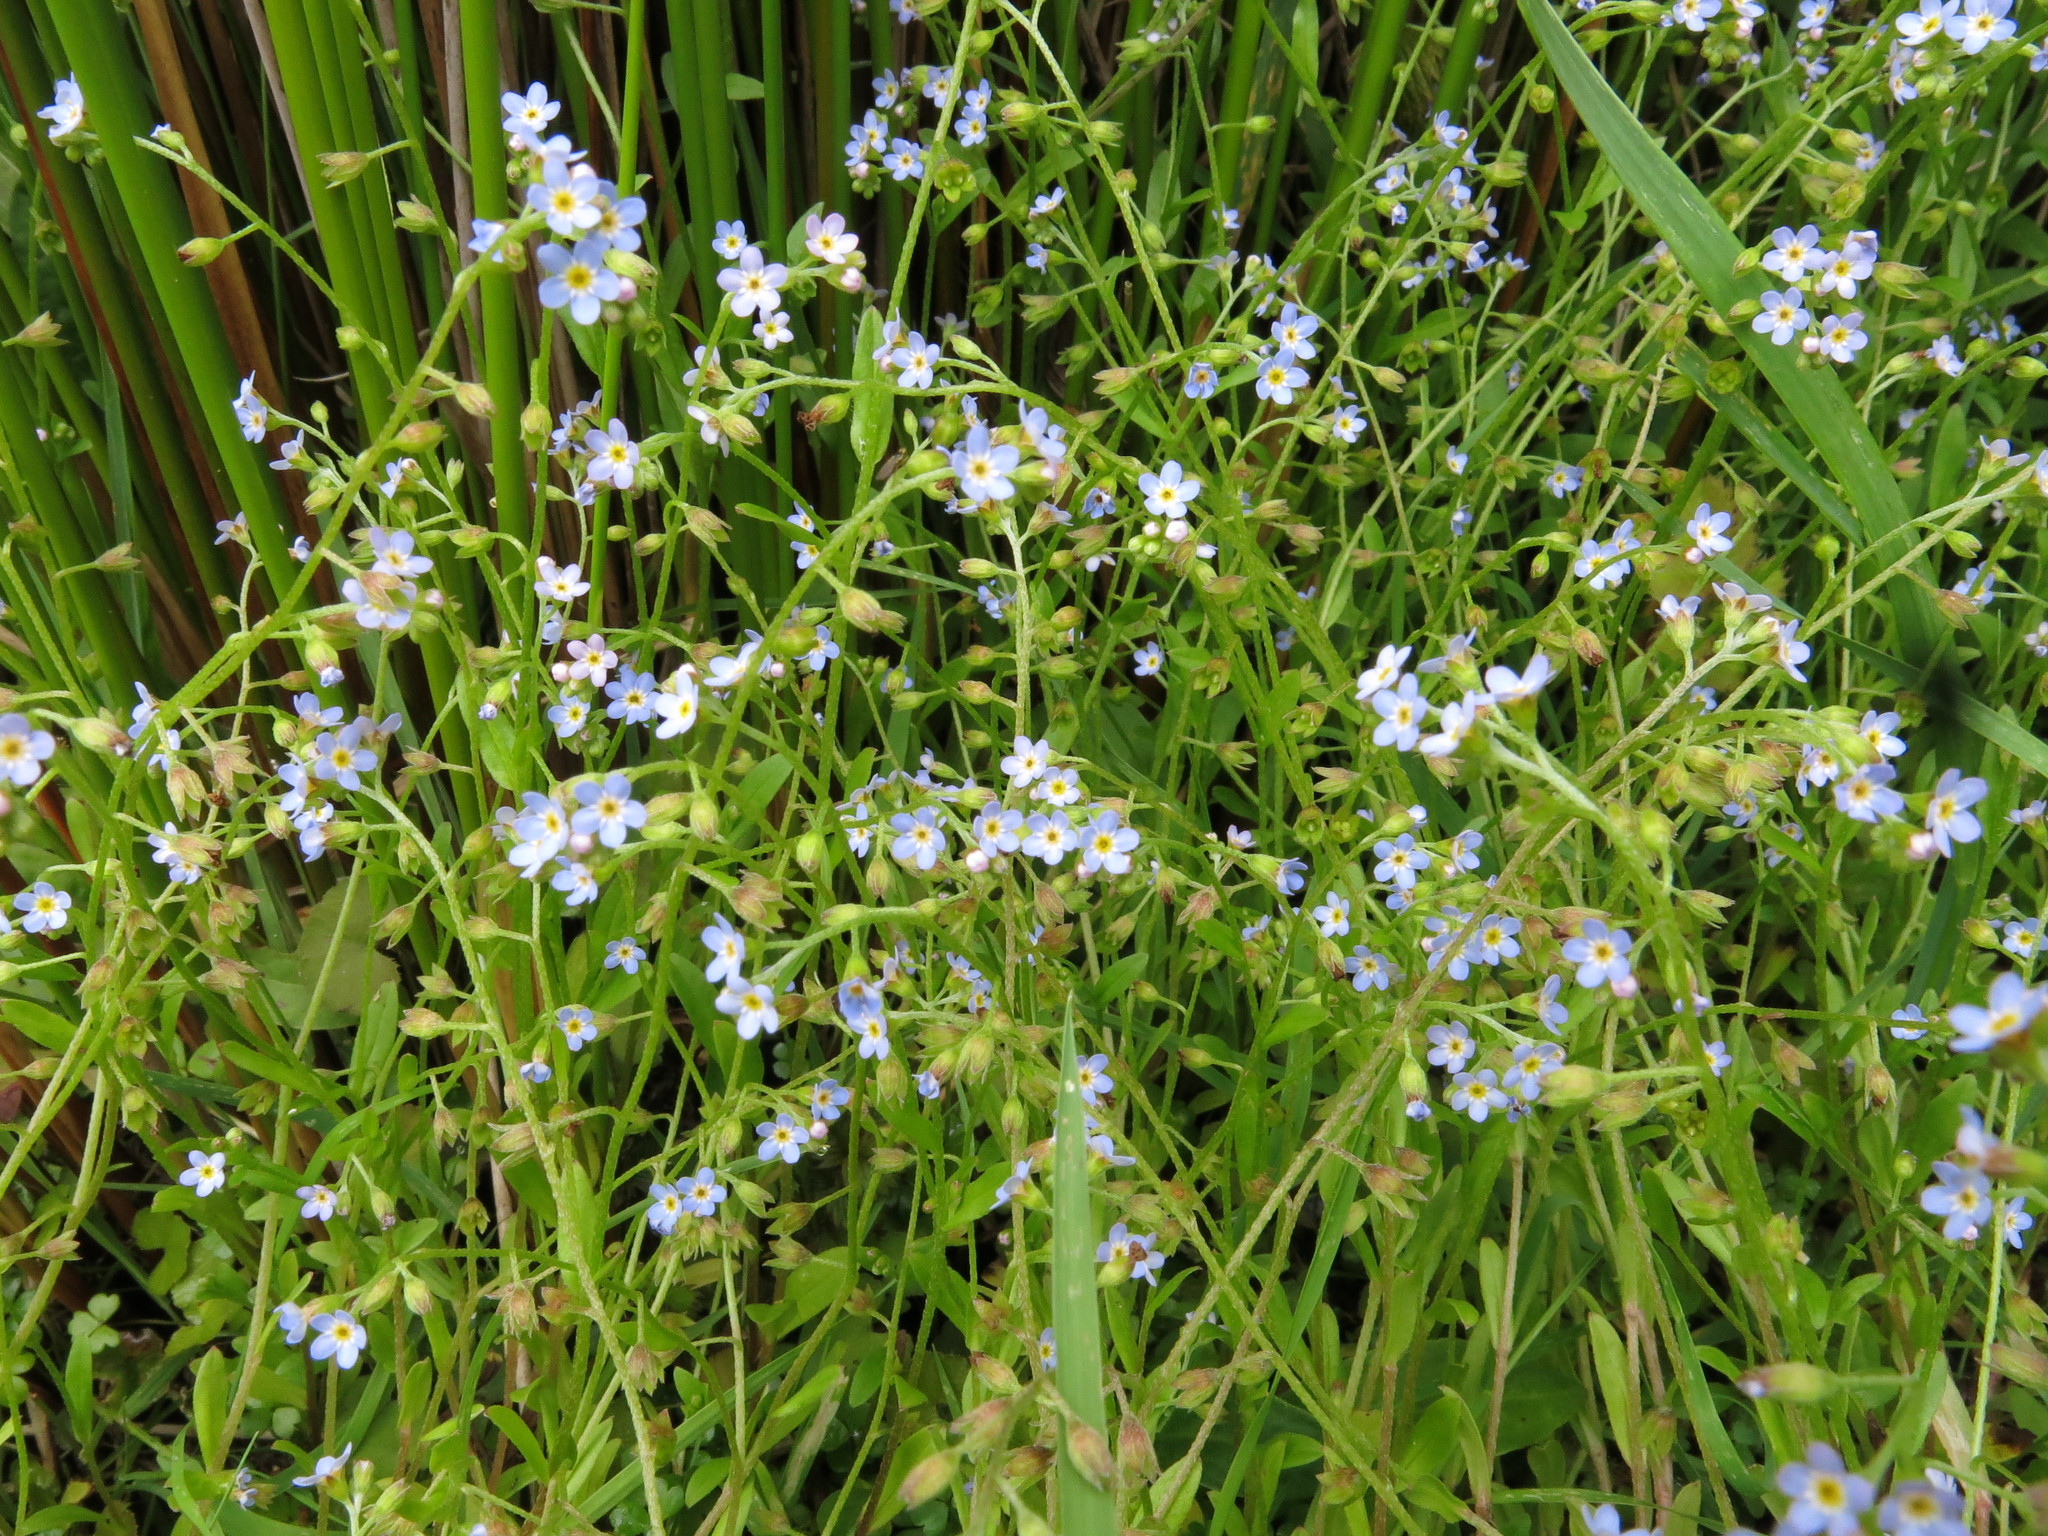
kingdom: Plantae
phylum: Tracheophyta
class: Magnoliopsida
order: Boraginales
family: Boraginaceae
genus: Myosotis
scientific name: Myosotis laxa
